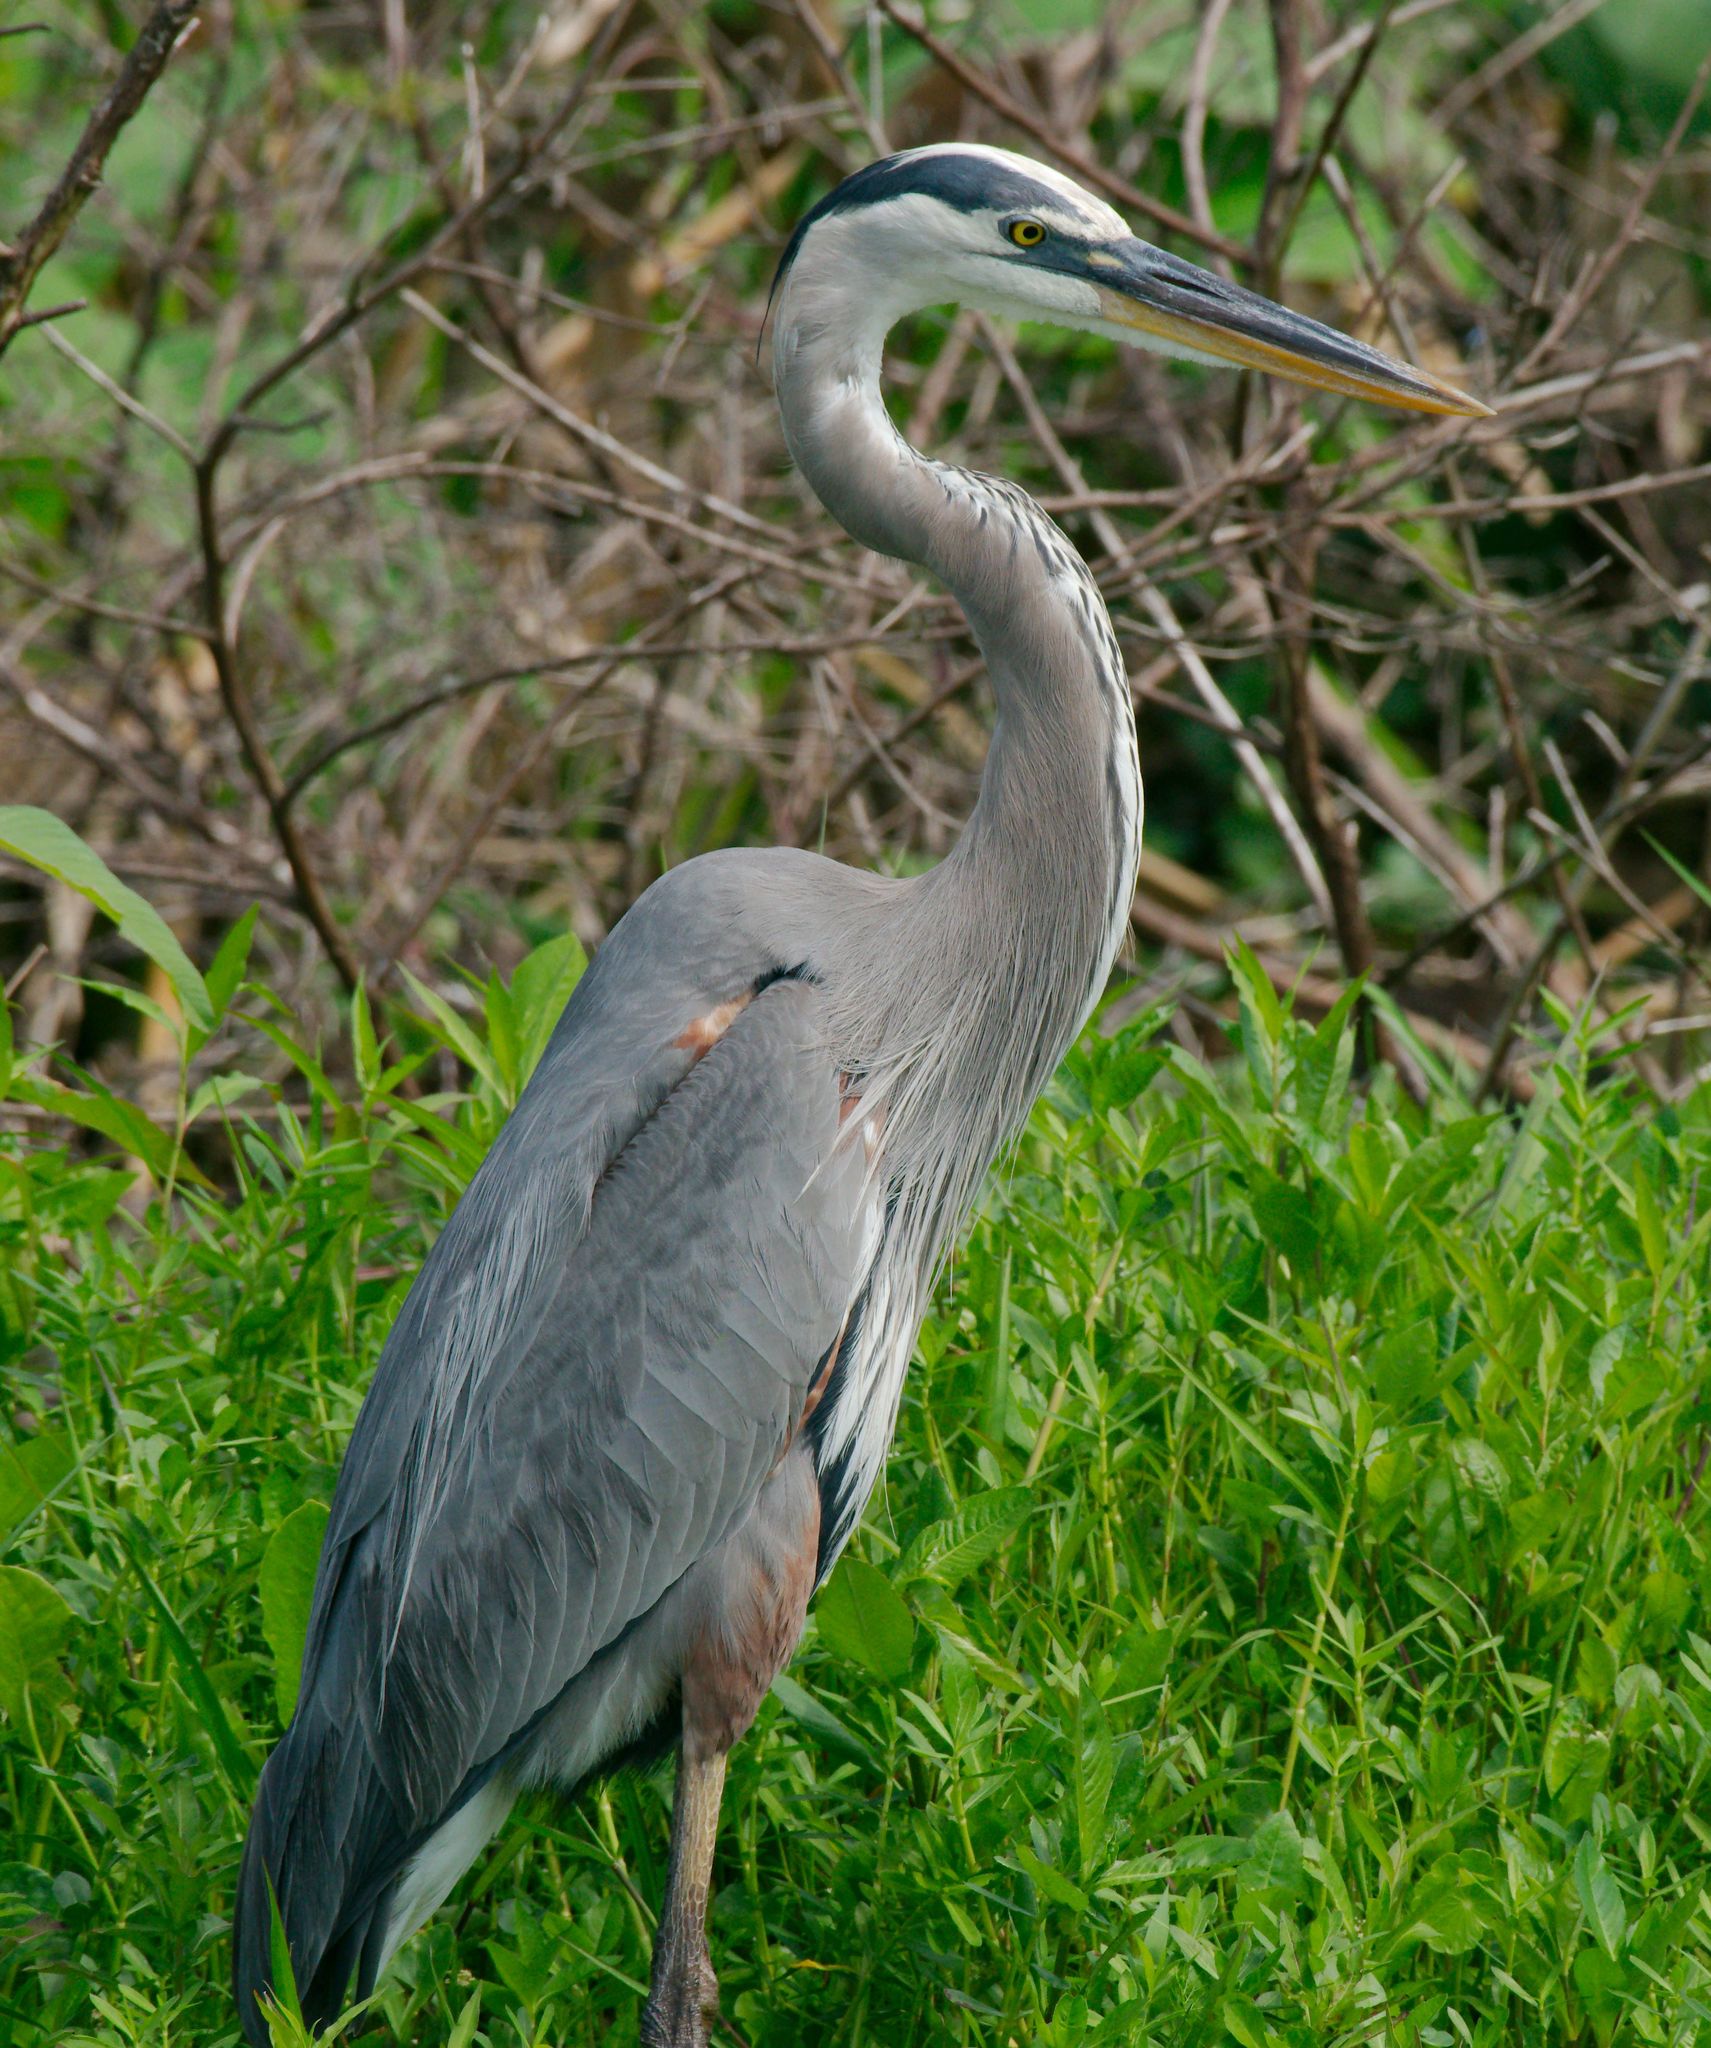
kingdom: Animalia
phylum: Chordata
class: Aves
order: Pelecaniformes
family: Ardeidae
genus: Ardea
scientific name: Ardea herodias
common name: Great blue heron
